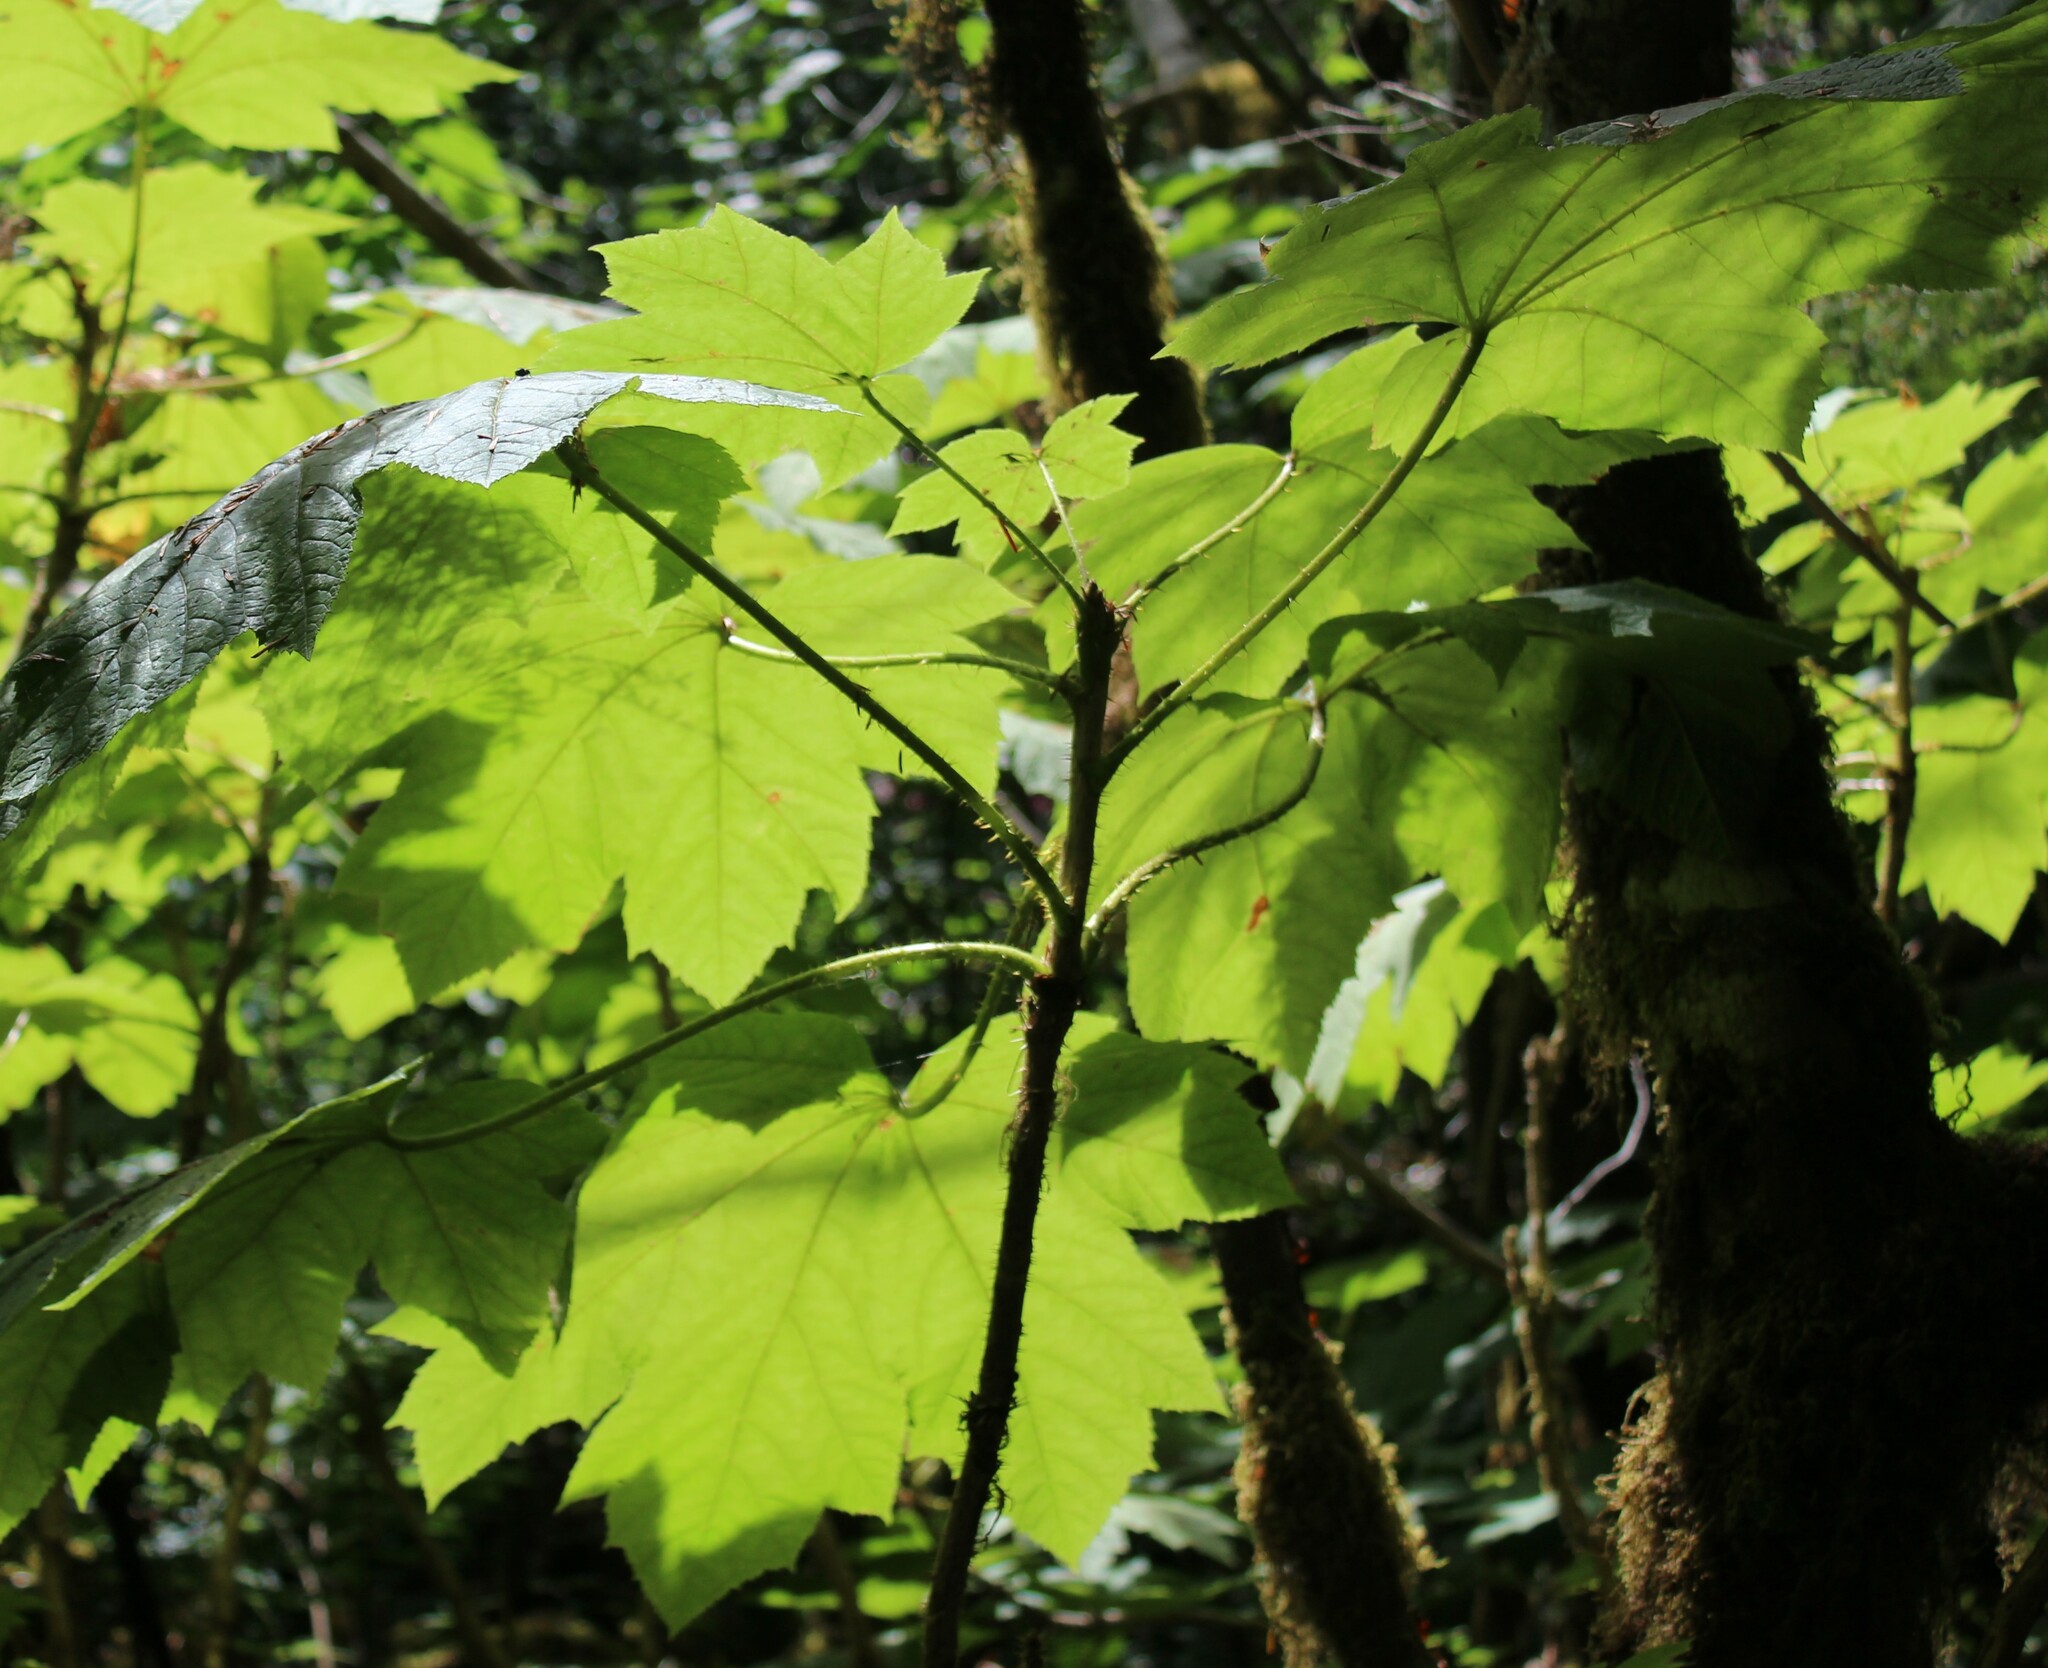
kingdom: Plantae
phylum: Tracheophyta
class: Magnoliopsida
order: Apiales
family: Araliaceae
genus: Oplopanax
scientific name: Oplopanax horridus
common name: Devil's walking-stick
